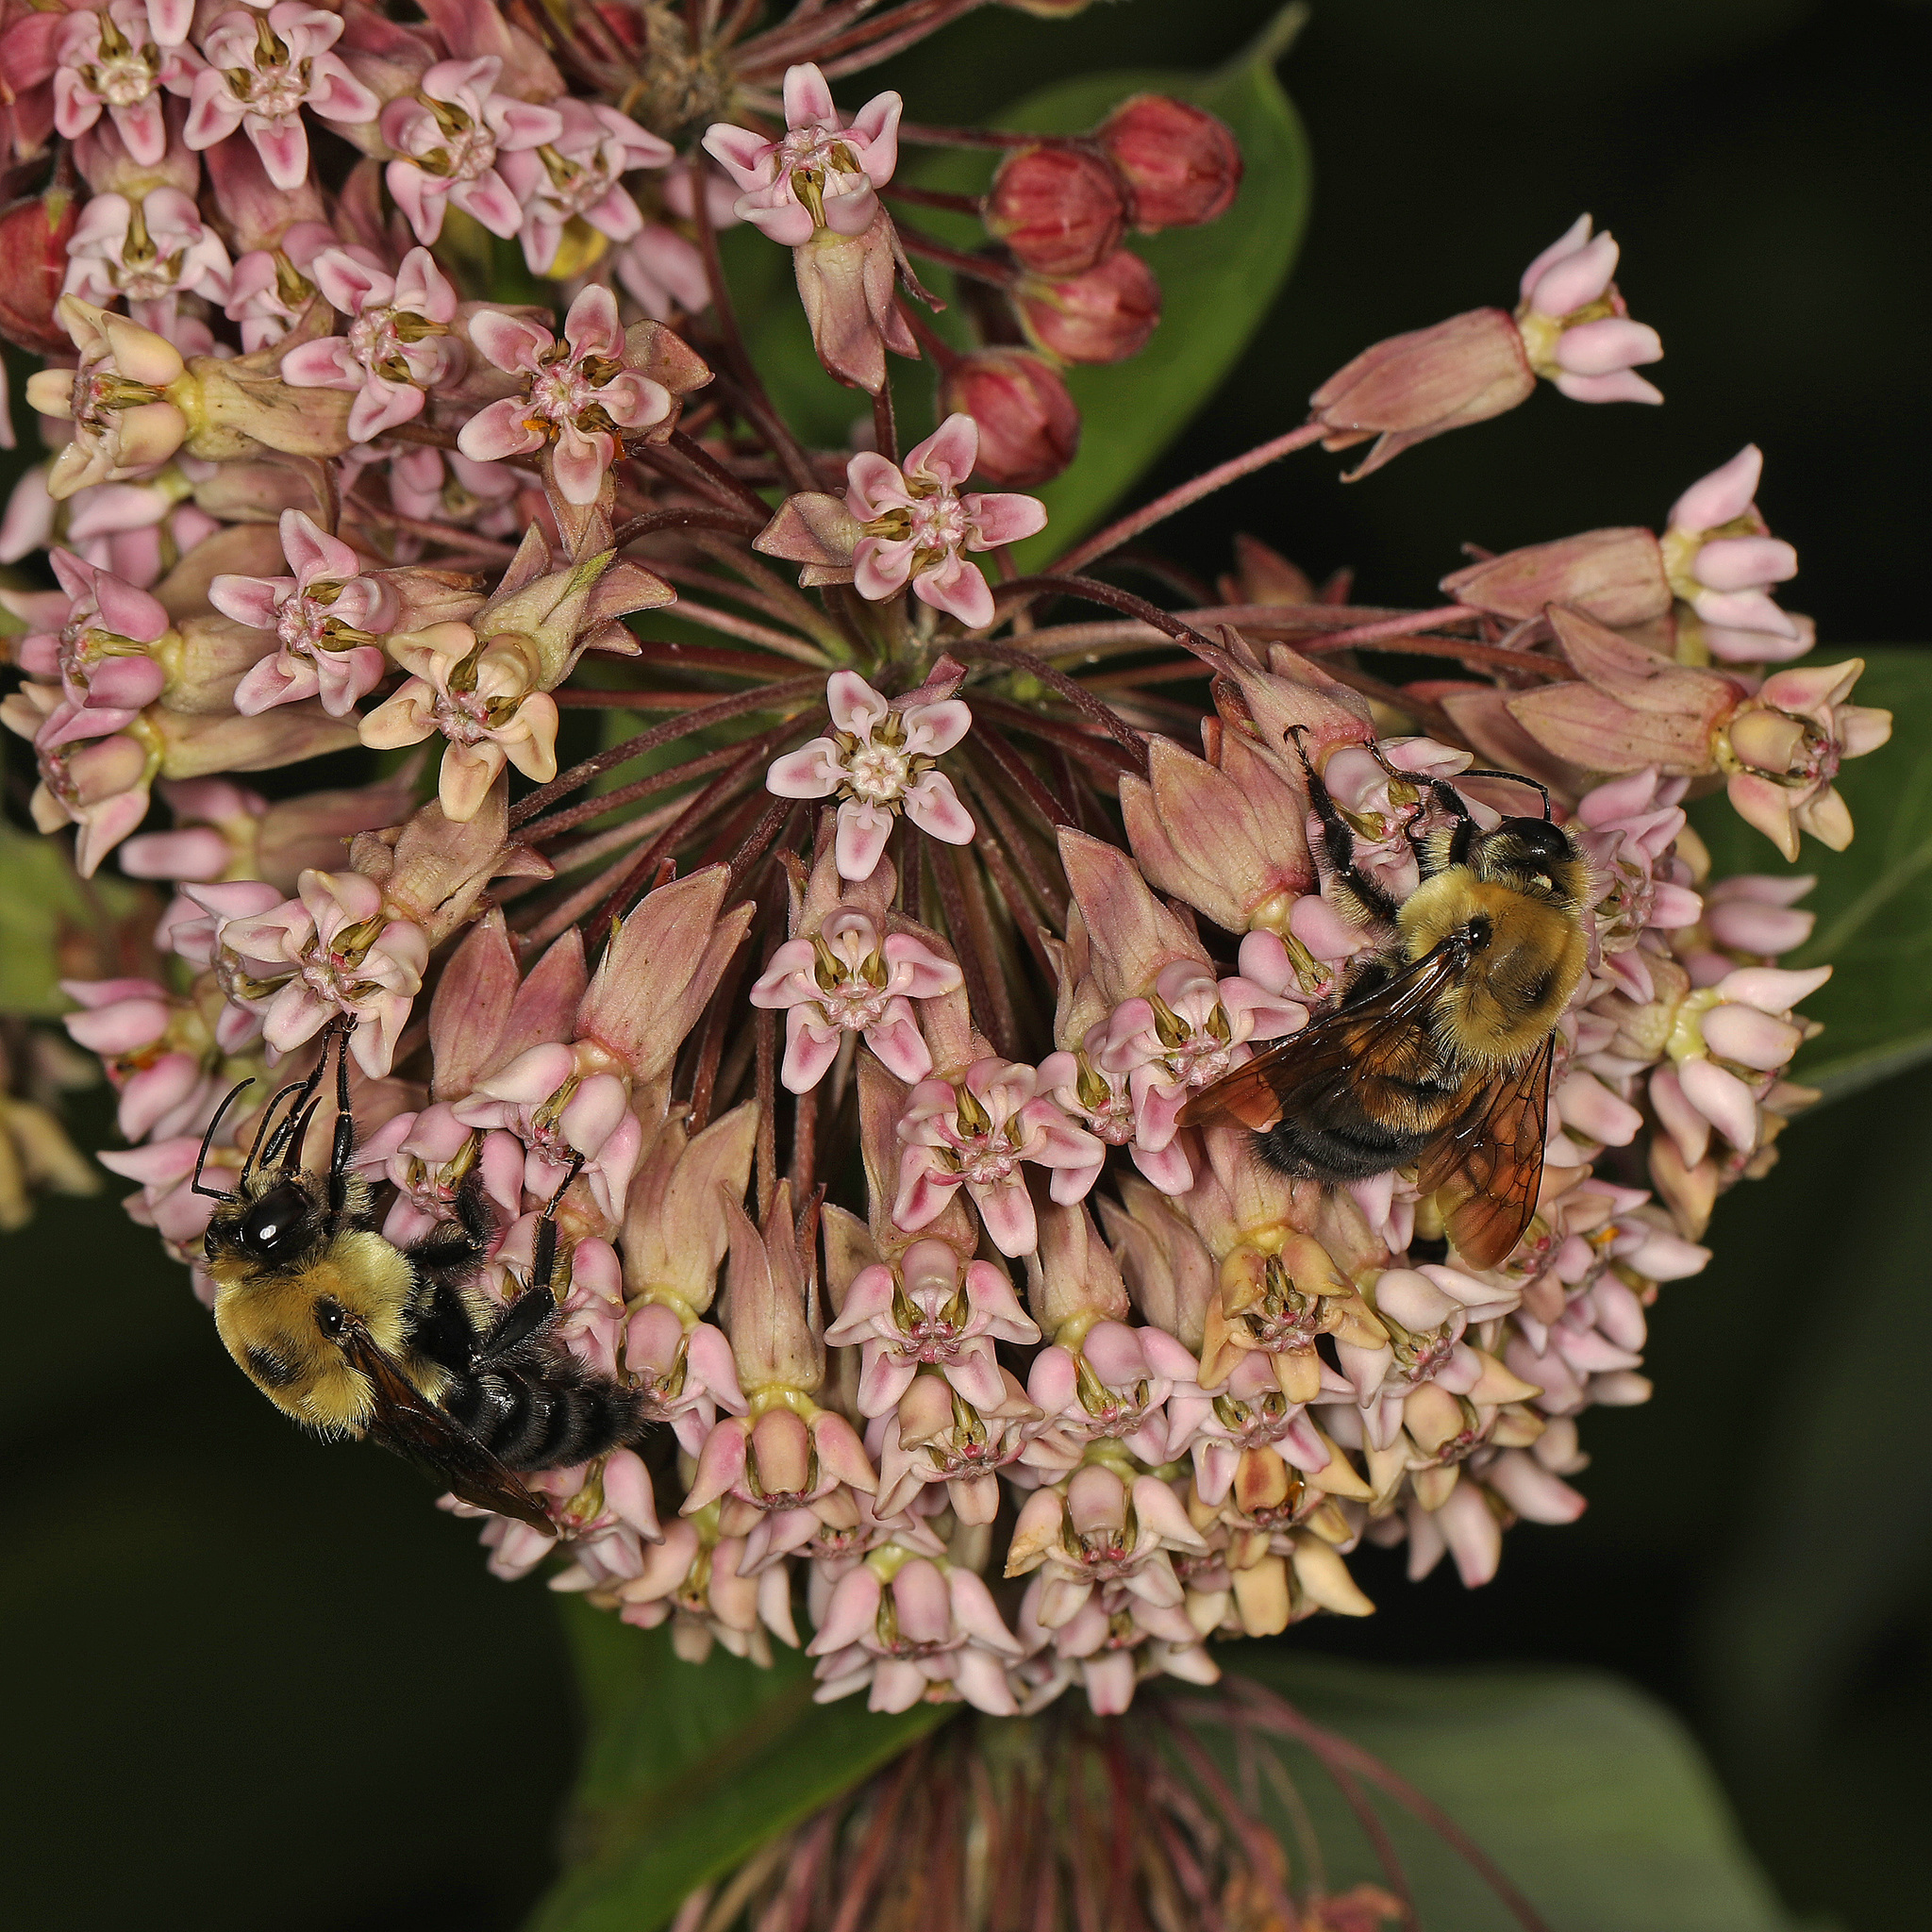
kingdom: Animalia
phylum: Arthropoda
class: Insecta
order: Hymenoptera
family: Apidae
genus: Bombus
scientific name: Bombus griseocollis
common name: Brown-belted bumble bee
